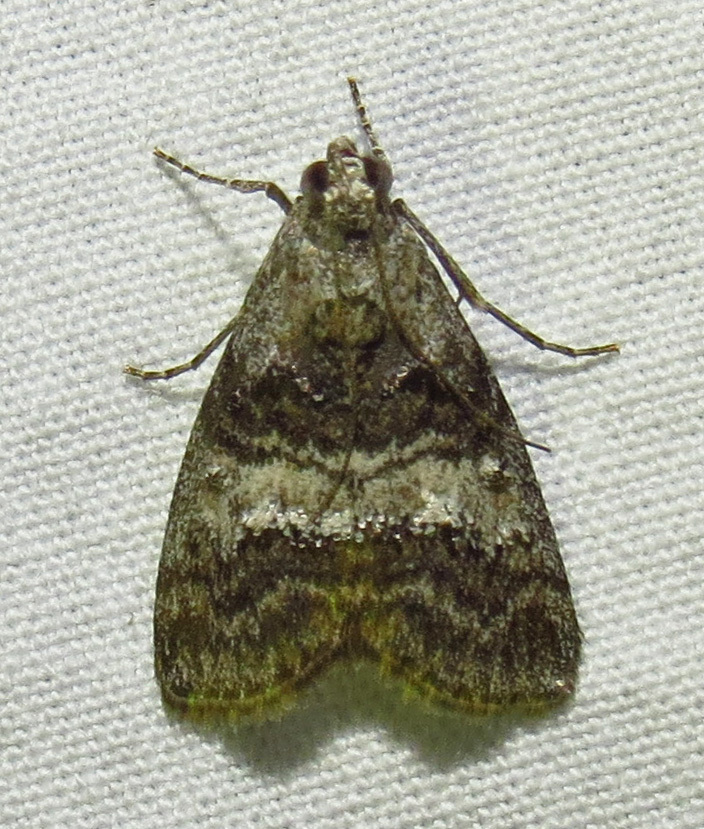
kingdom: Animalia
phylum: Arthropoda
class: Insecta
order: Lepidoptera
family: Pyralidae
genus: Pococera
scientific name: Pococera asperatella
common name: Maple webworm moth
